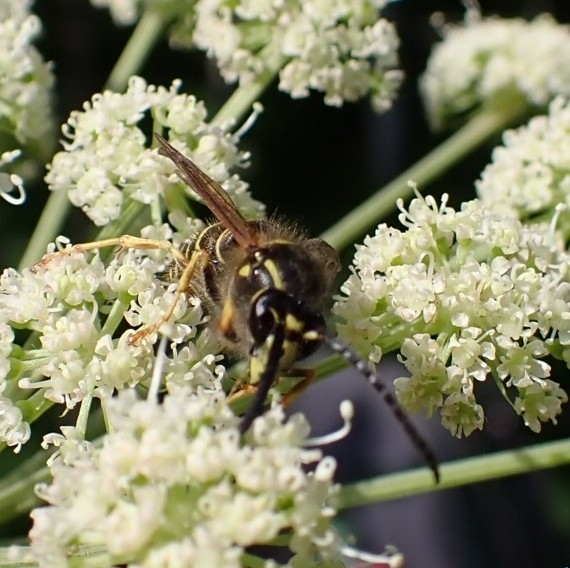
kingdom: Animalia
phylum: Arthropoda
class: Insecta
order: Hymenoptera
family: Vespidae
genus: Dolichovespula
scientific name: Dolichovespula sylvestris
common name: Tree wasp
